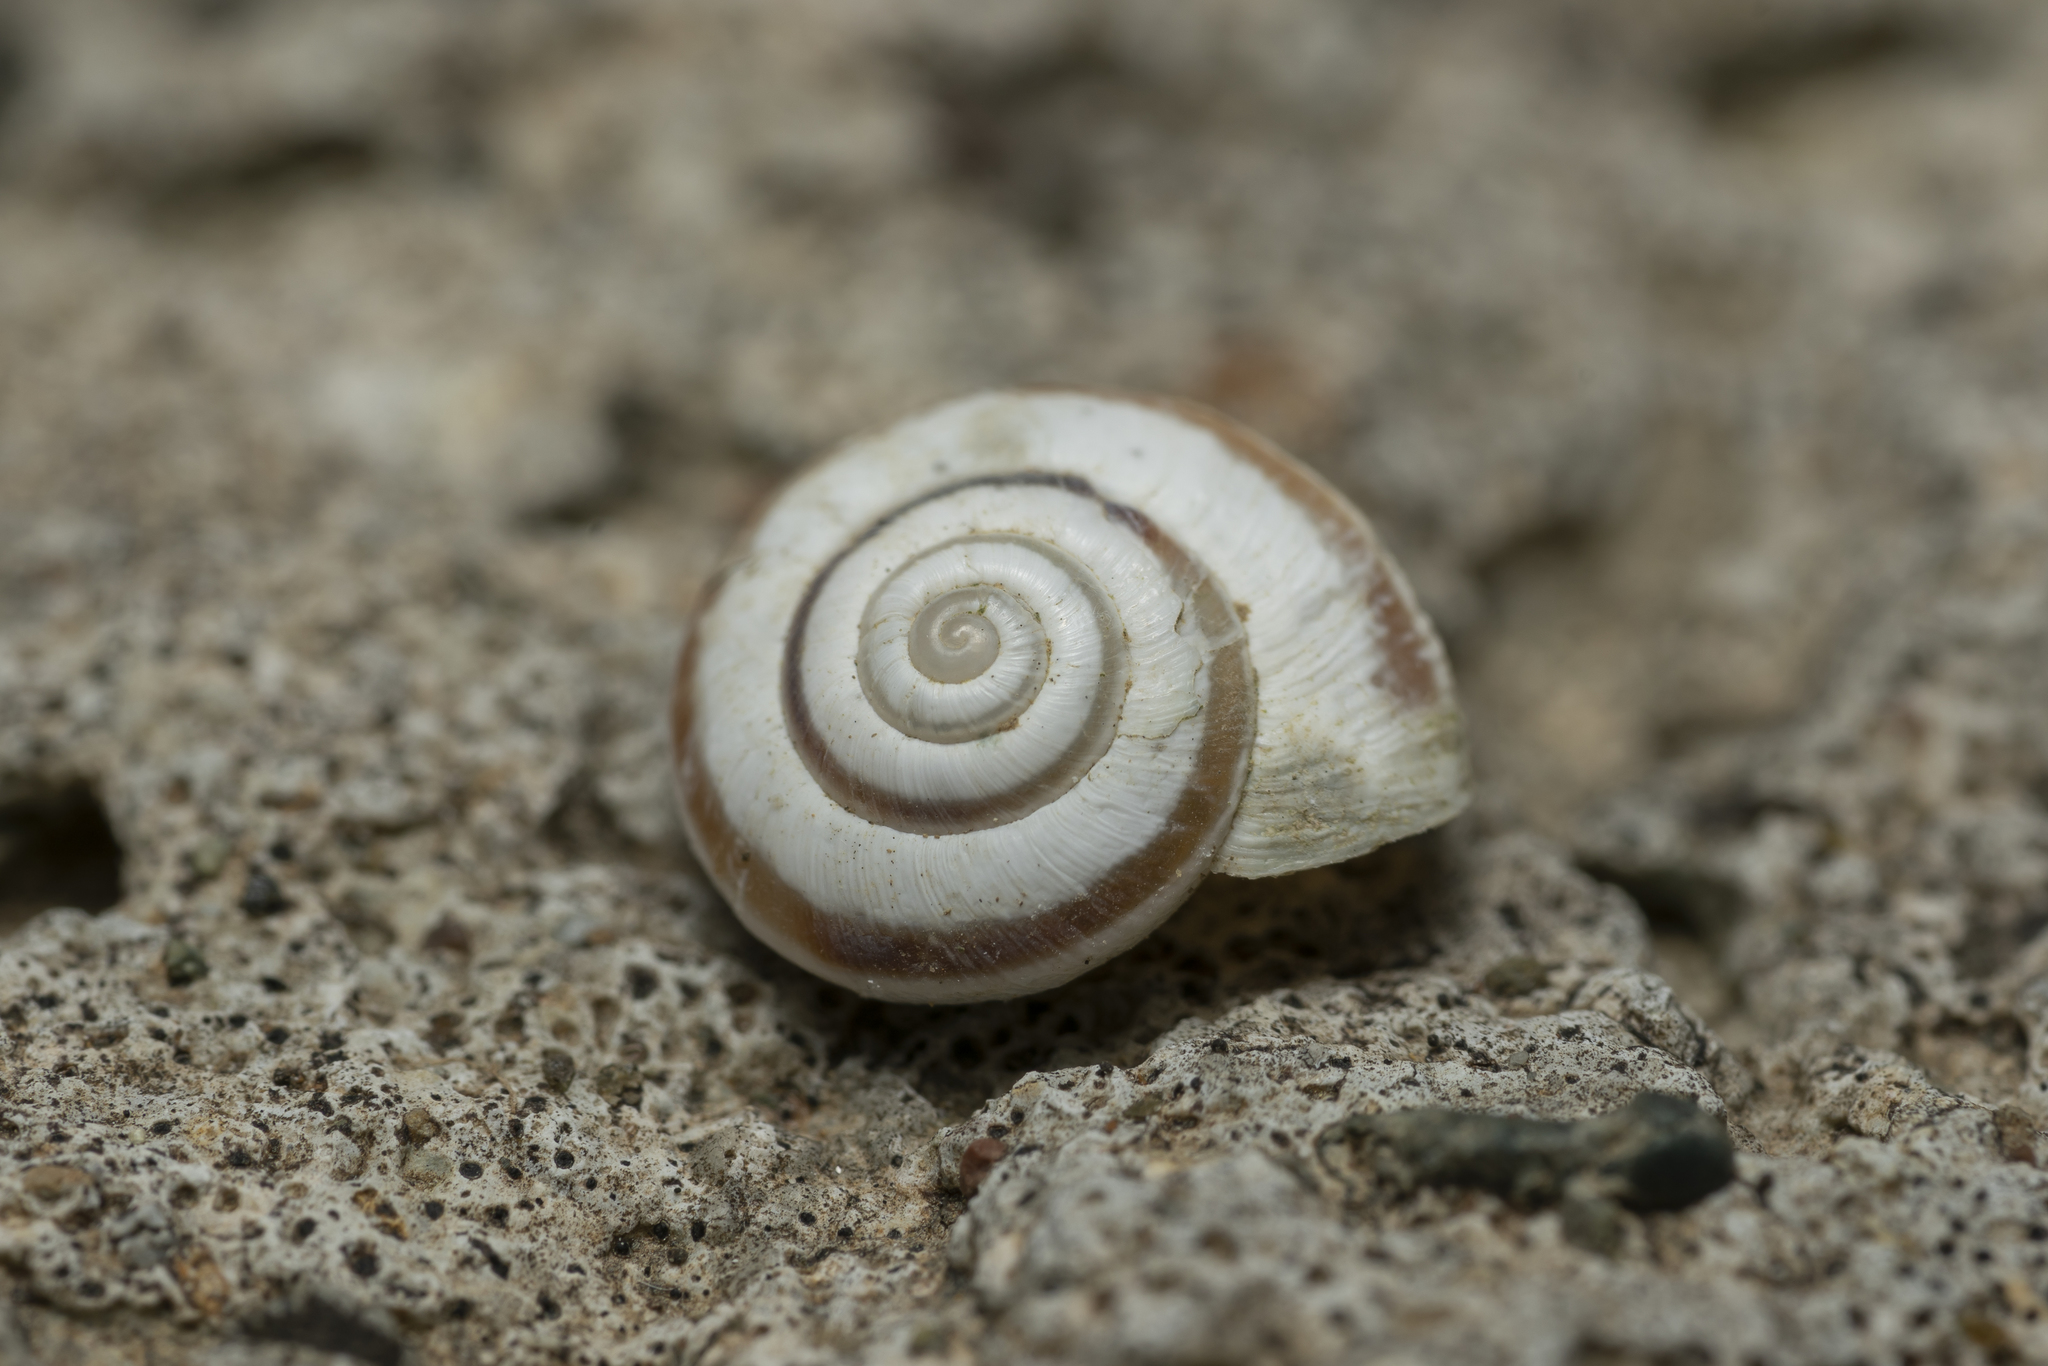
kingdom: Animalia
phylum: Mollusca
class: Gastropoda
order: Stylommatophora
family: Geomitridae
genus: Cernuella
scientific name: Cernuella virgata
